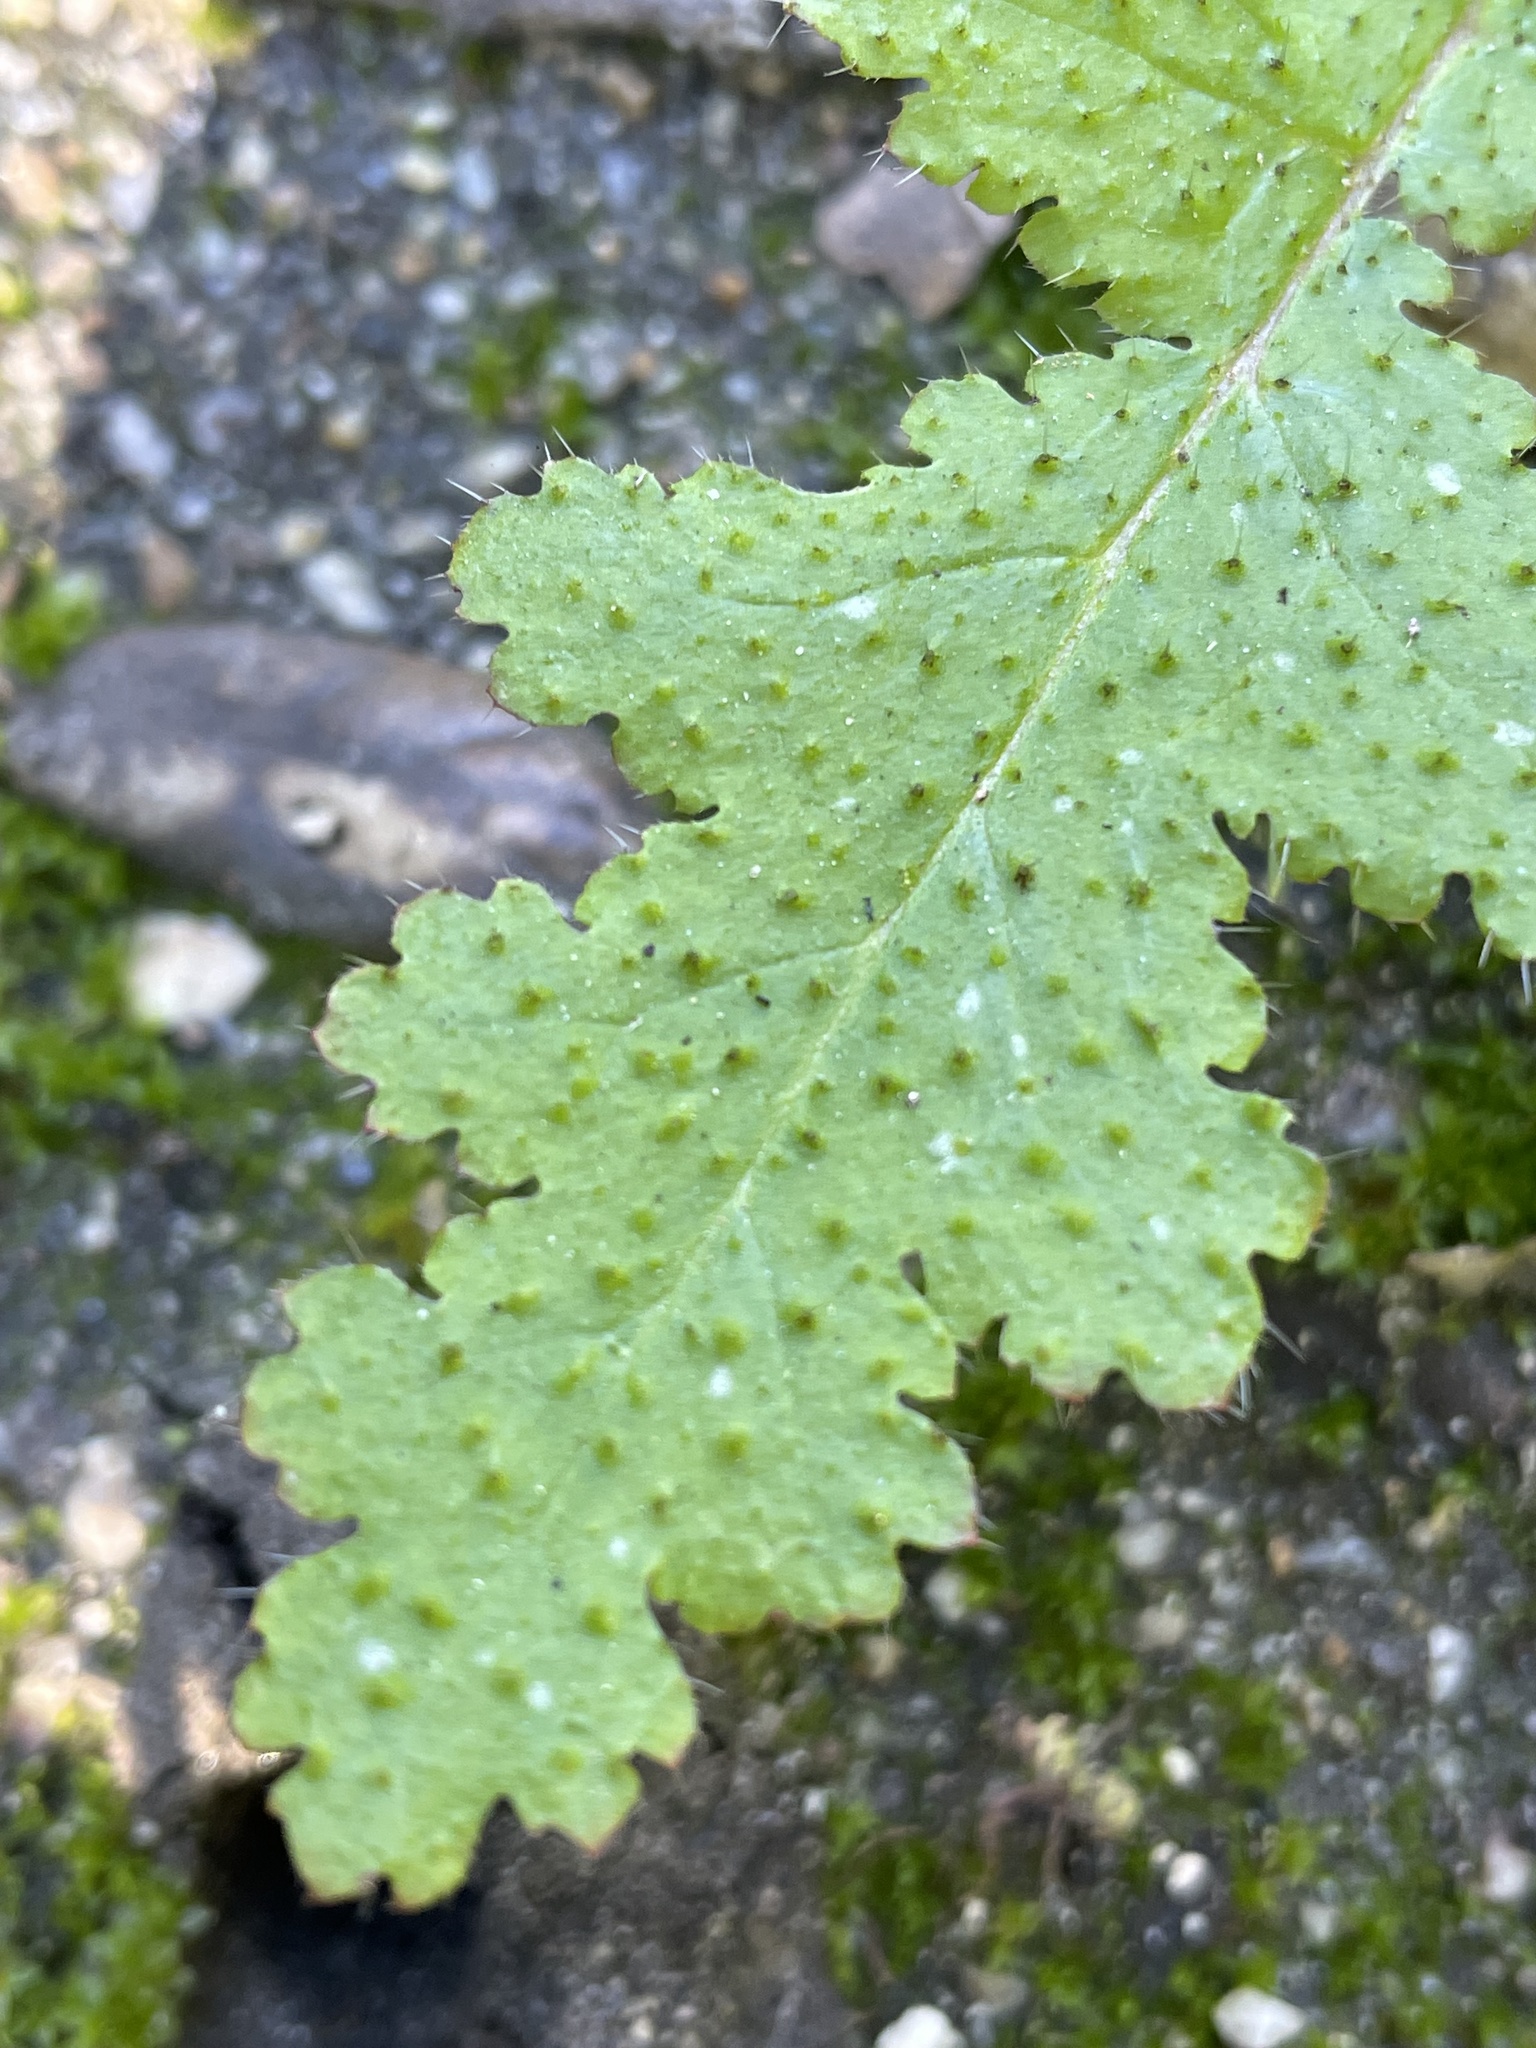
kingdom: Plantae
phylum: Tracheophyta
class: Magnoliopsida
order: Boraginales
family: Hydrophyllaceae
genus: Phacelia
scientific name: Phacelia malvifolia
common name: Mallow-leaf phacelia
